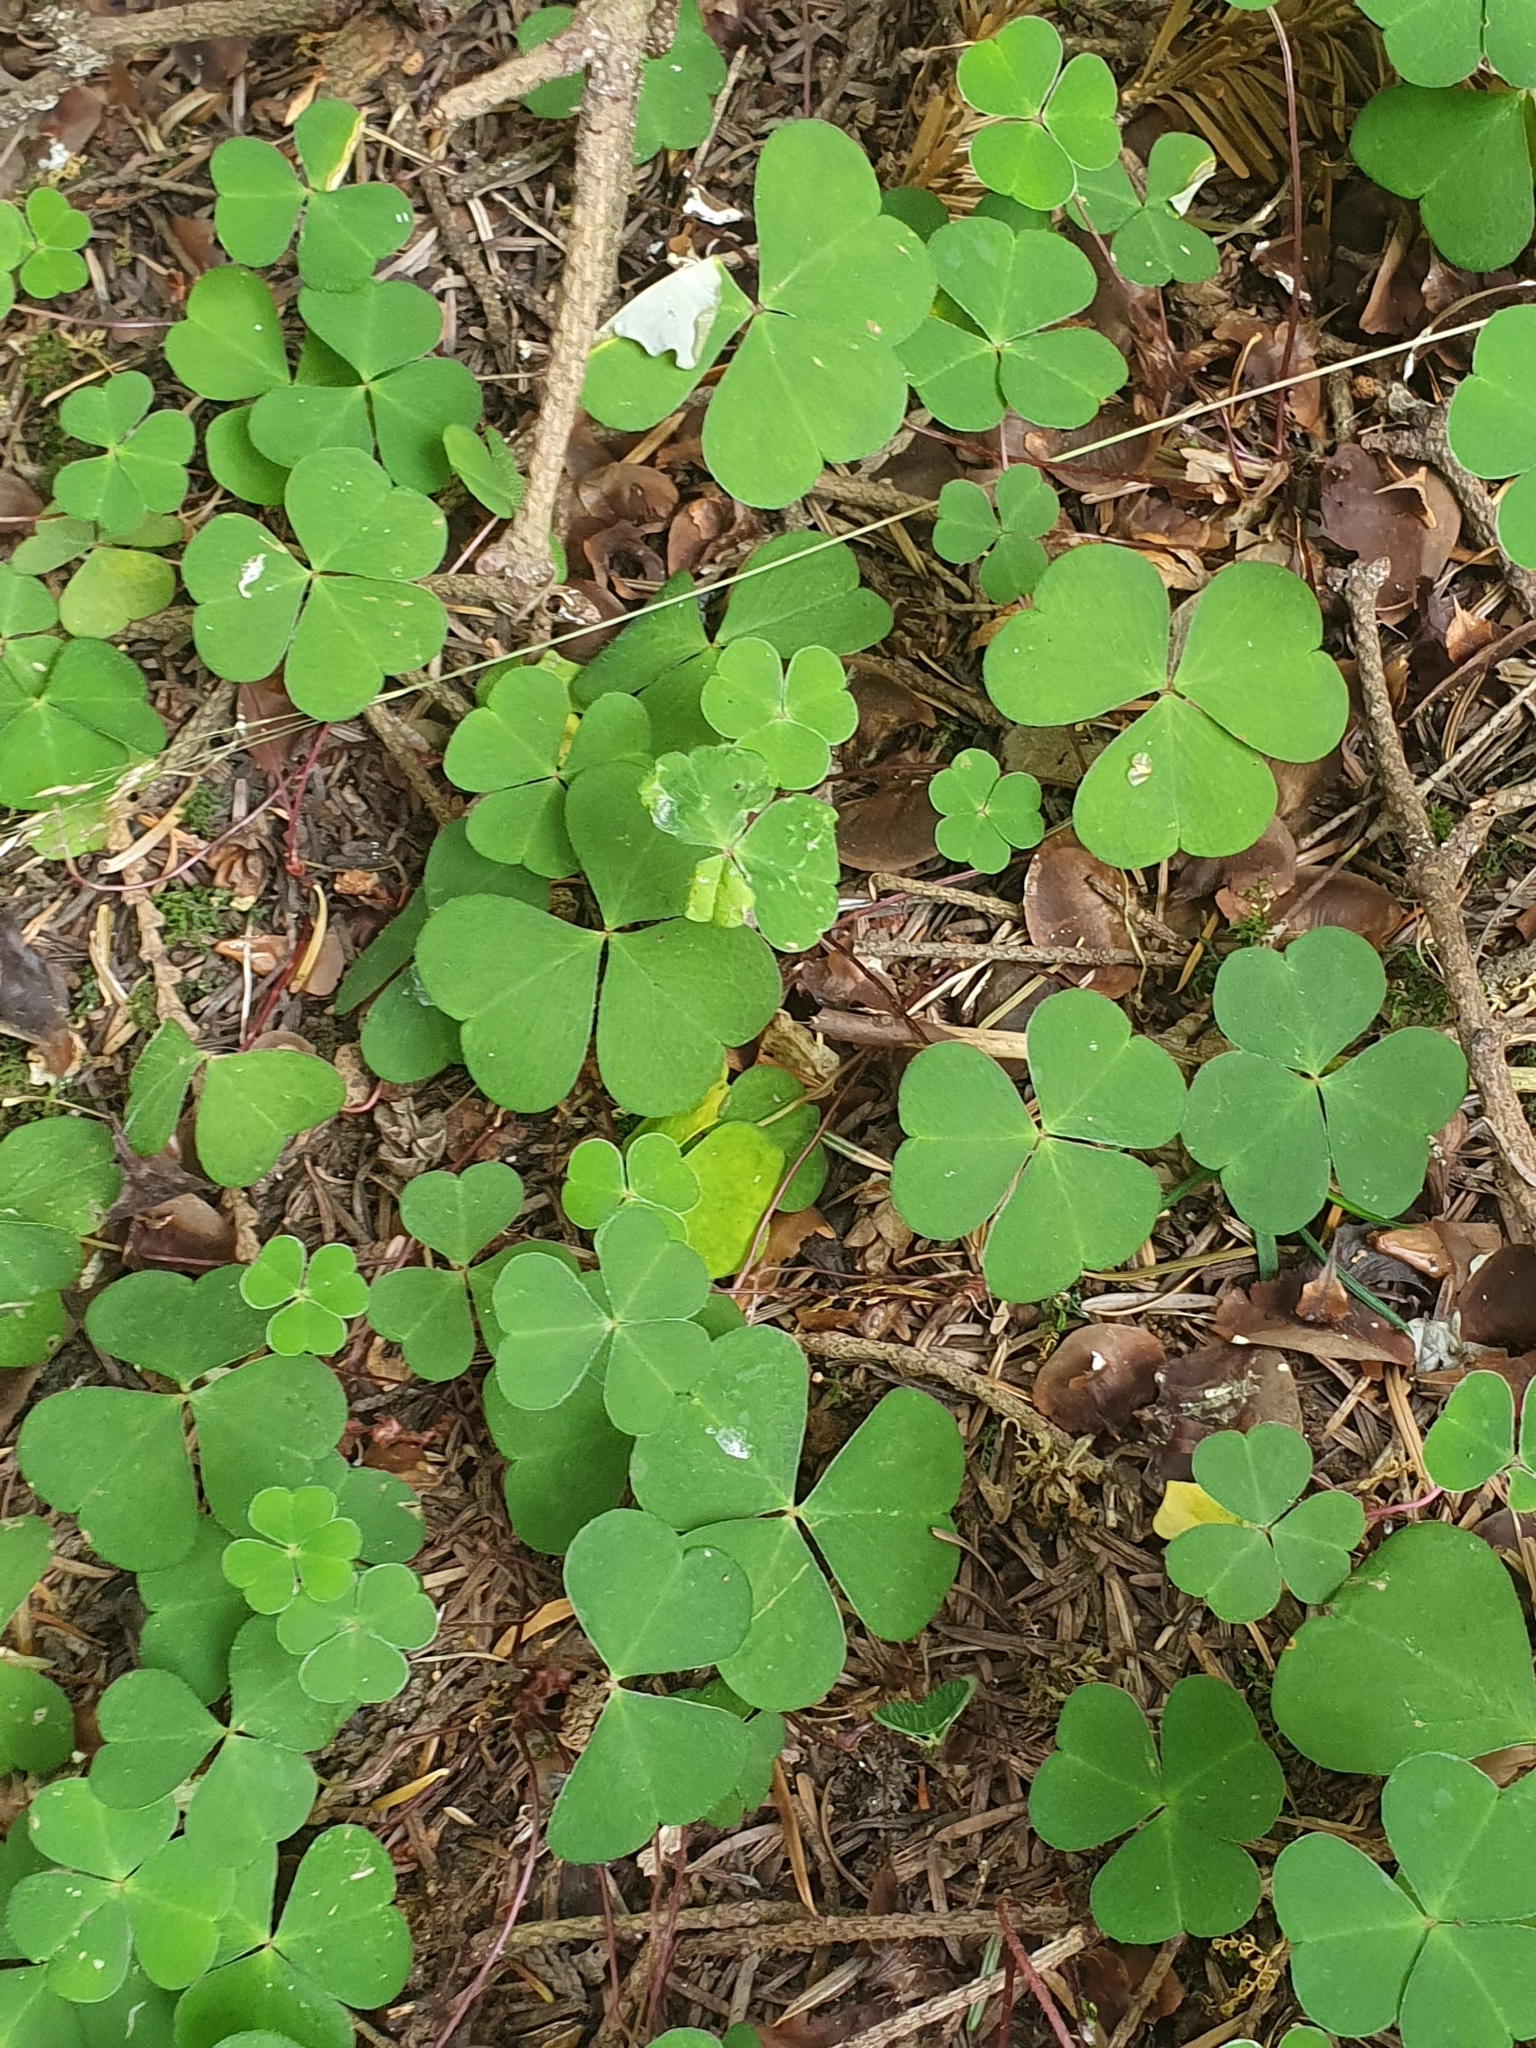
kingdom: Plantae
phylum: Tracheophyta
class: Magnoliopsida
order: Oxalidales
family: Oxalidaceae
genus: Oxalis
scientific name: Oxalis acetosella
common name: Wood-sorrel
